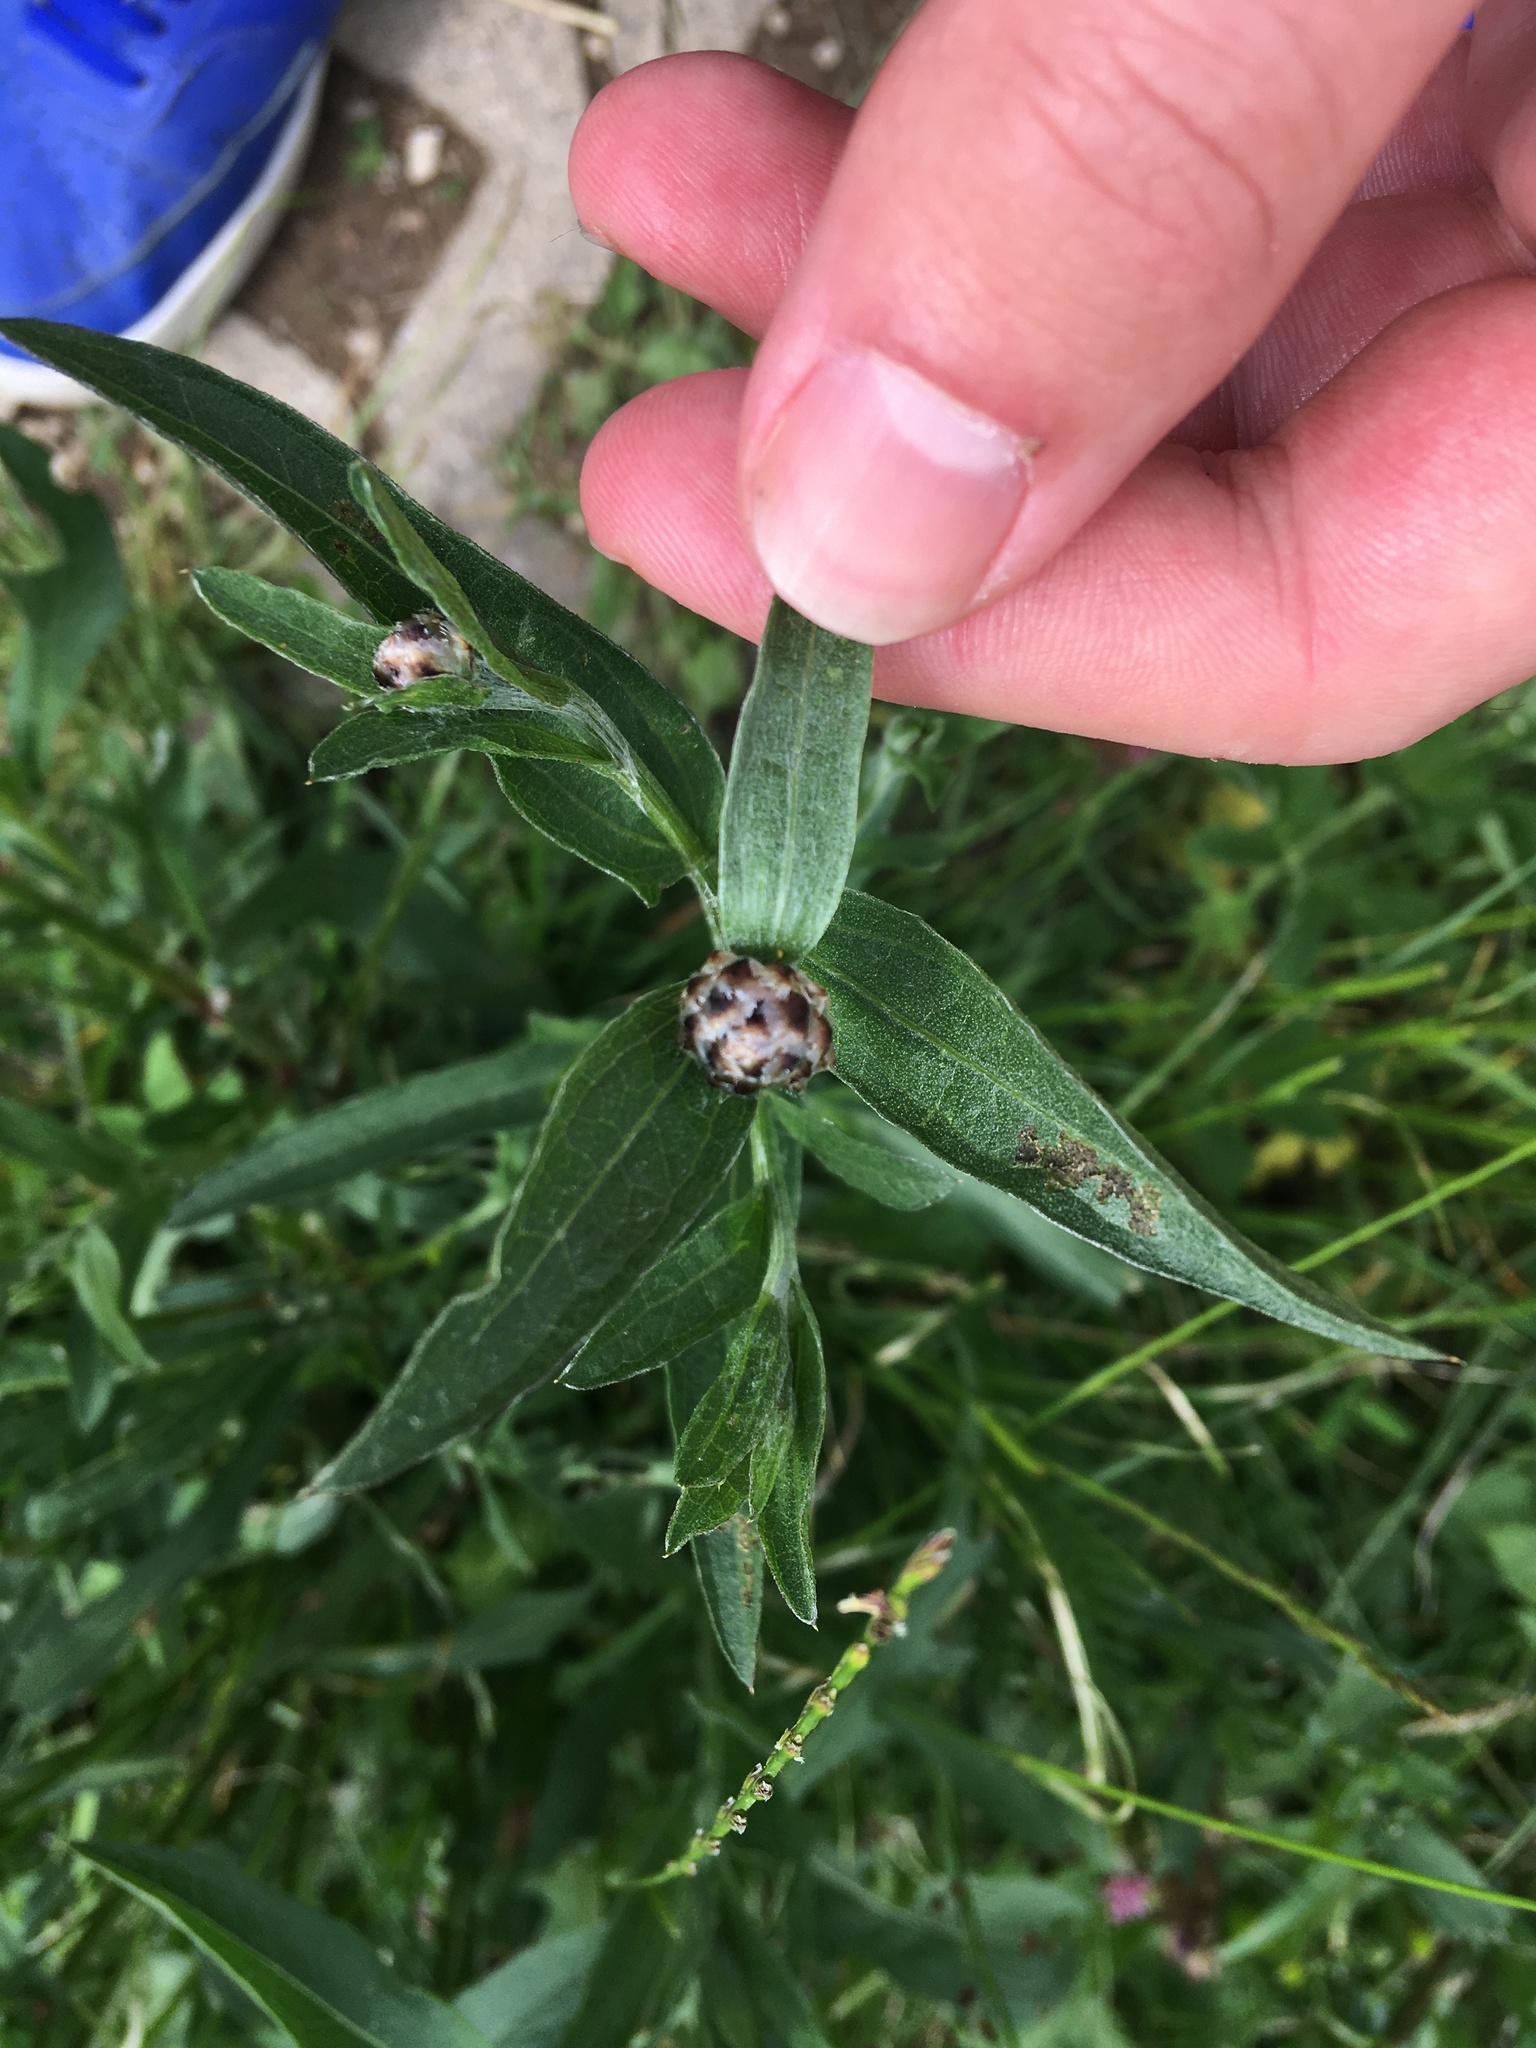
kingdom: Plantae
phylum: Tracheophyta
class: Magnoliopsida
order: Asterales
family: Asteraceae
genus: Centaurea
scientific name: Centaurea jacea
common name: Brown knapweed
